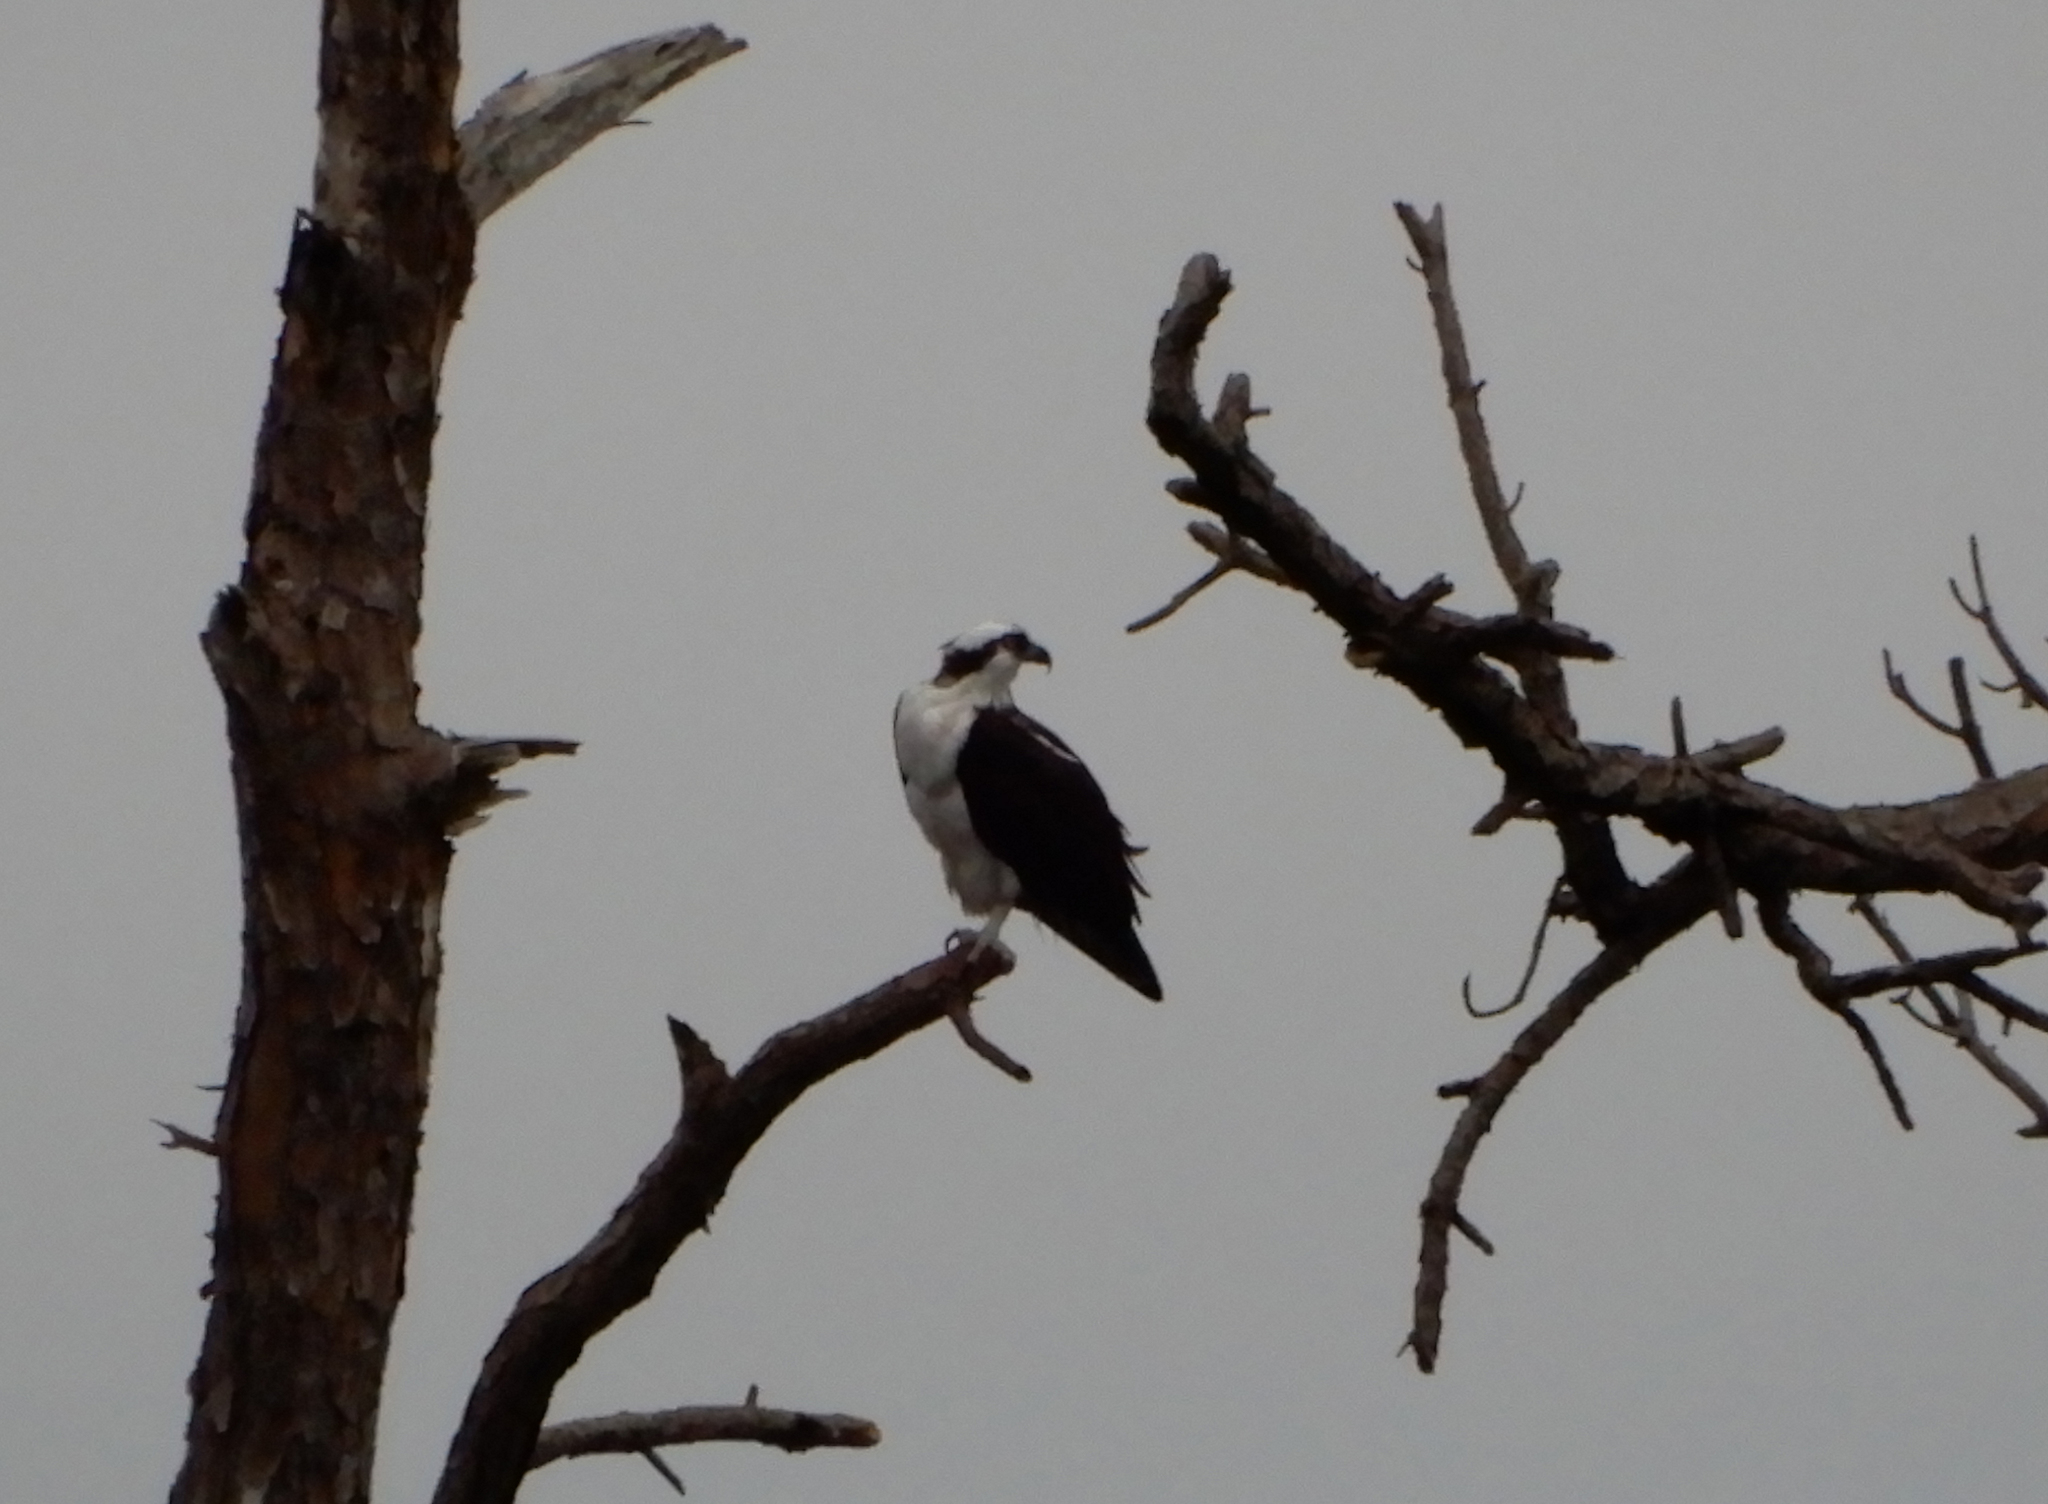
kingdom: Animalia
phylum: Chordata
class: Aves
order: Accipitriformes
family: Pandionidae
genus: Pandion
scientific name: Pandion haliaetus
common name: Osprey
